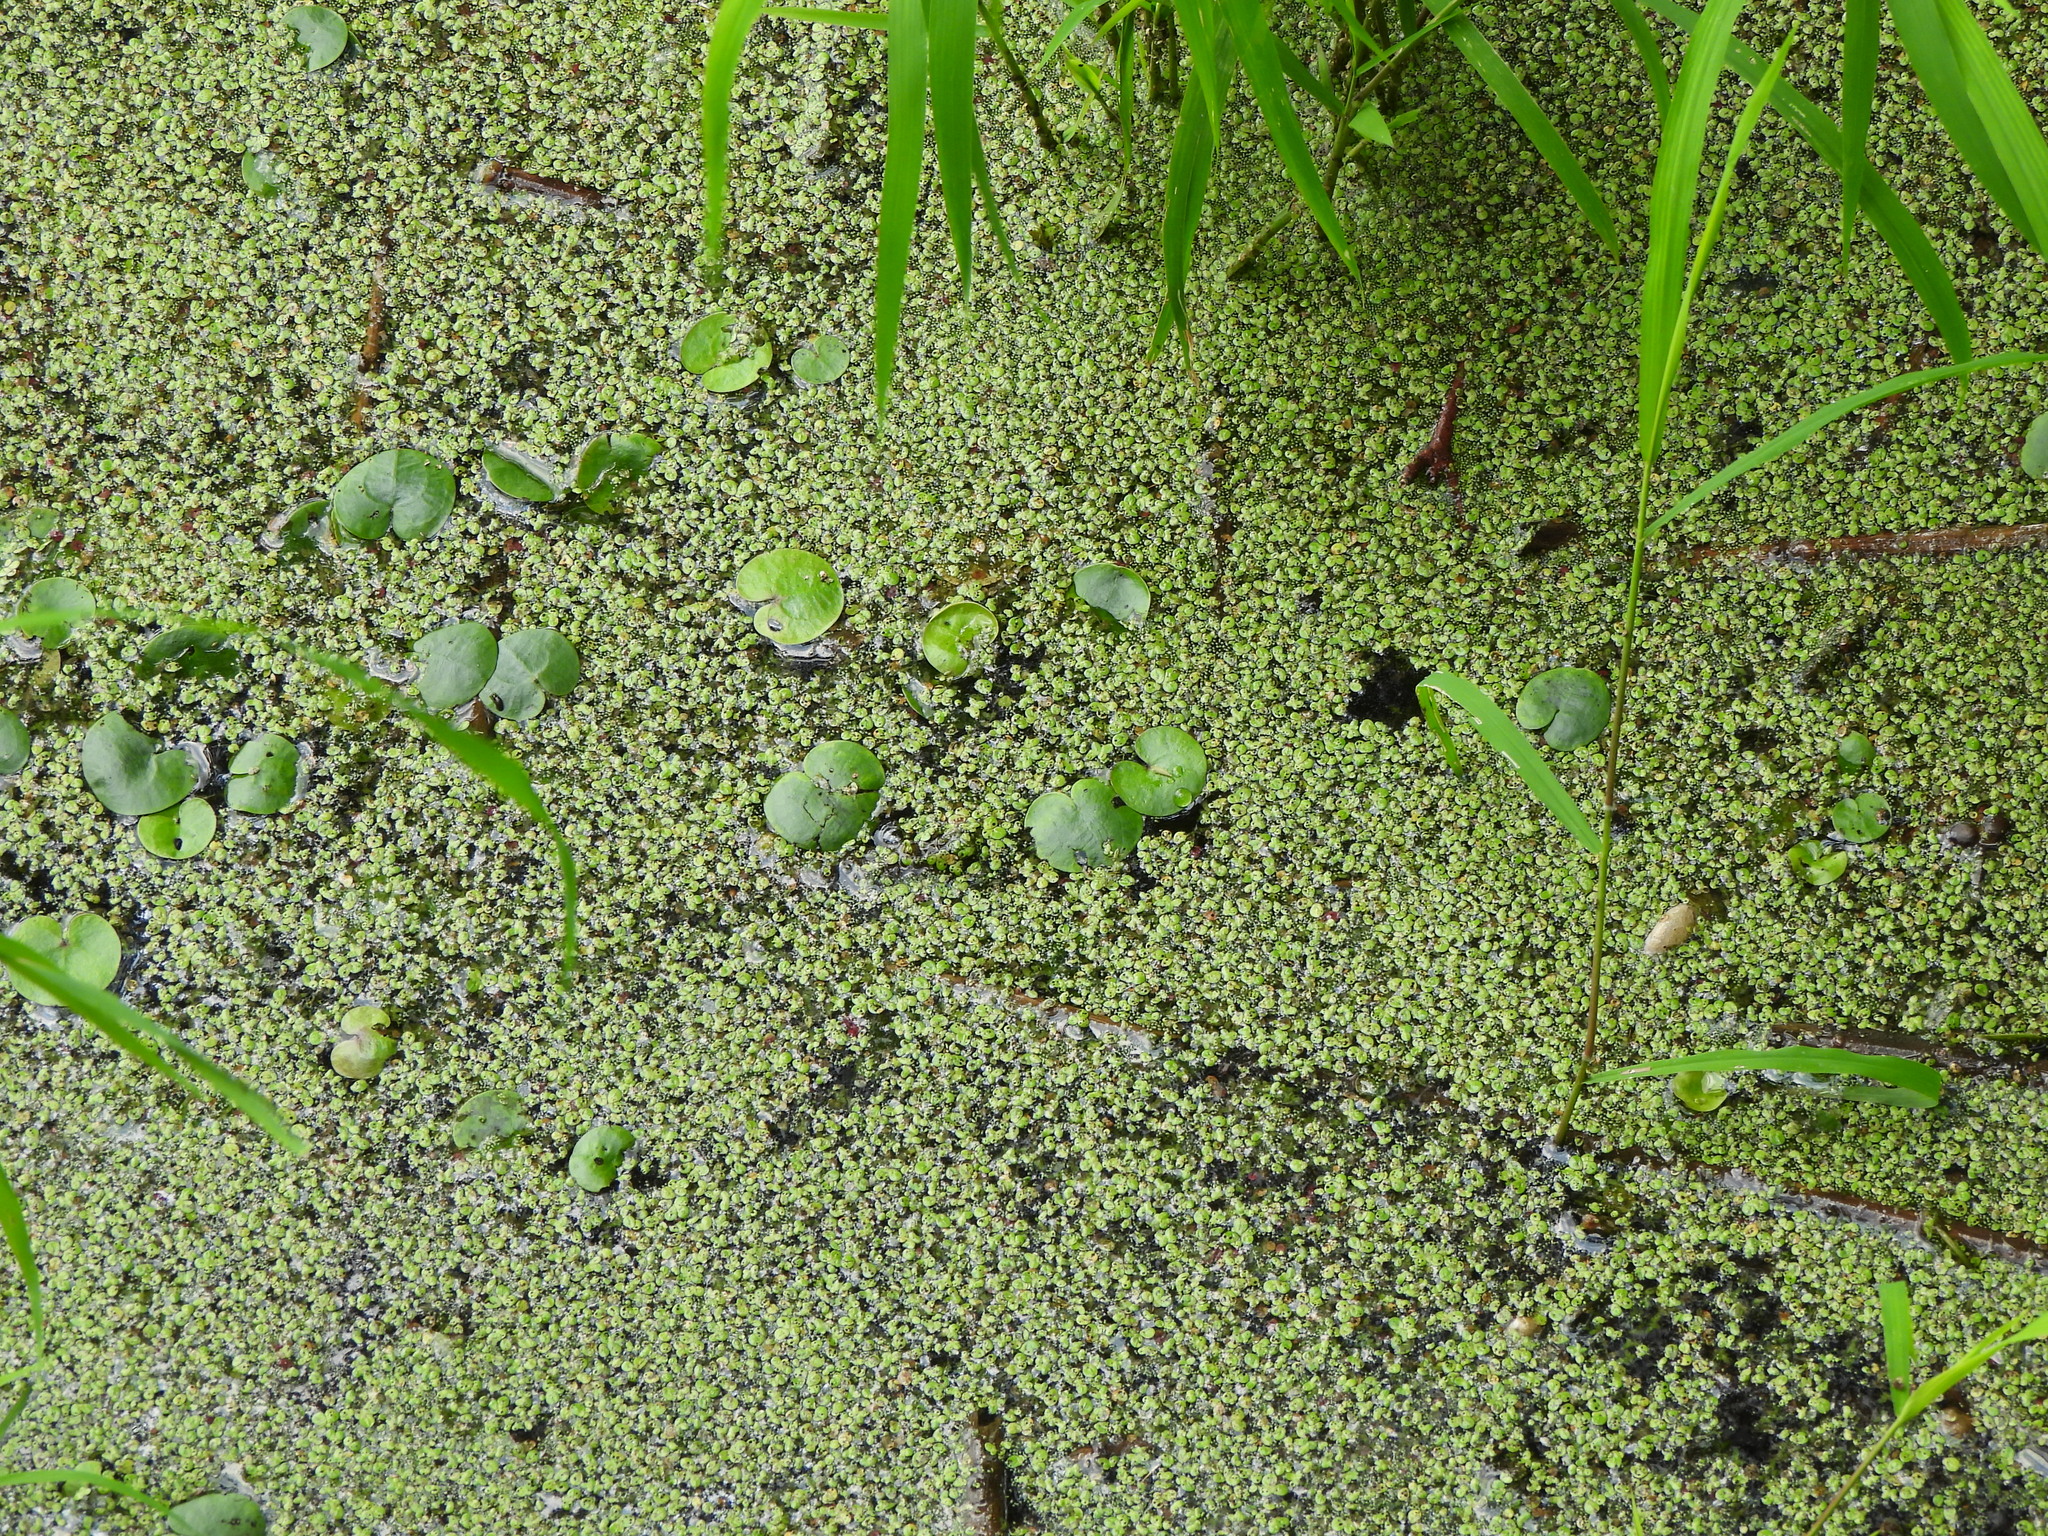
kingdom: Plantae
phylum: Tracheophyta
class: Liliopsida
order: Alismatales
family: Hydrocharitaceae
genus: Hydrocharis
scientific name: Hydrocharis morsus-ranae
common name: Frogbit
